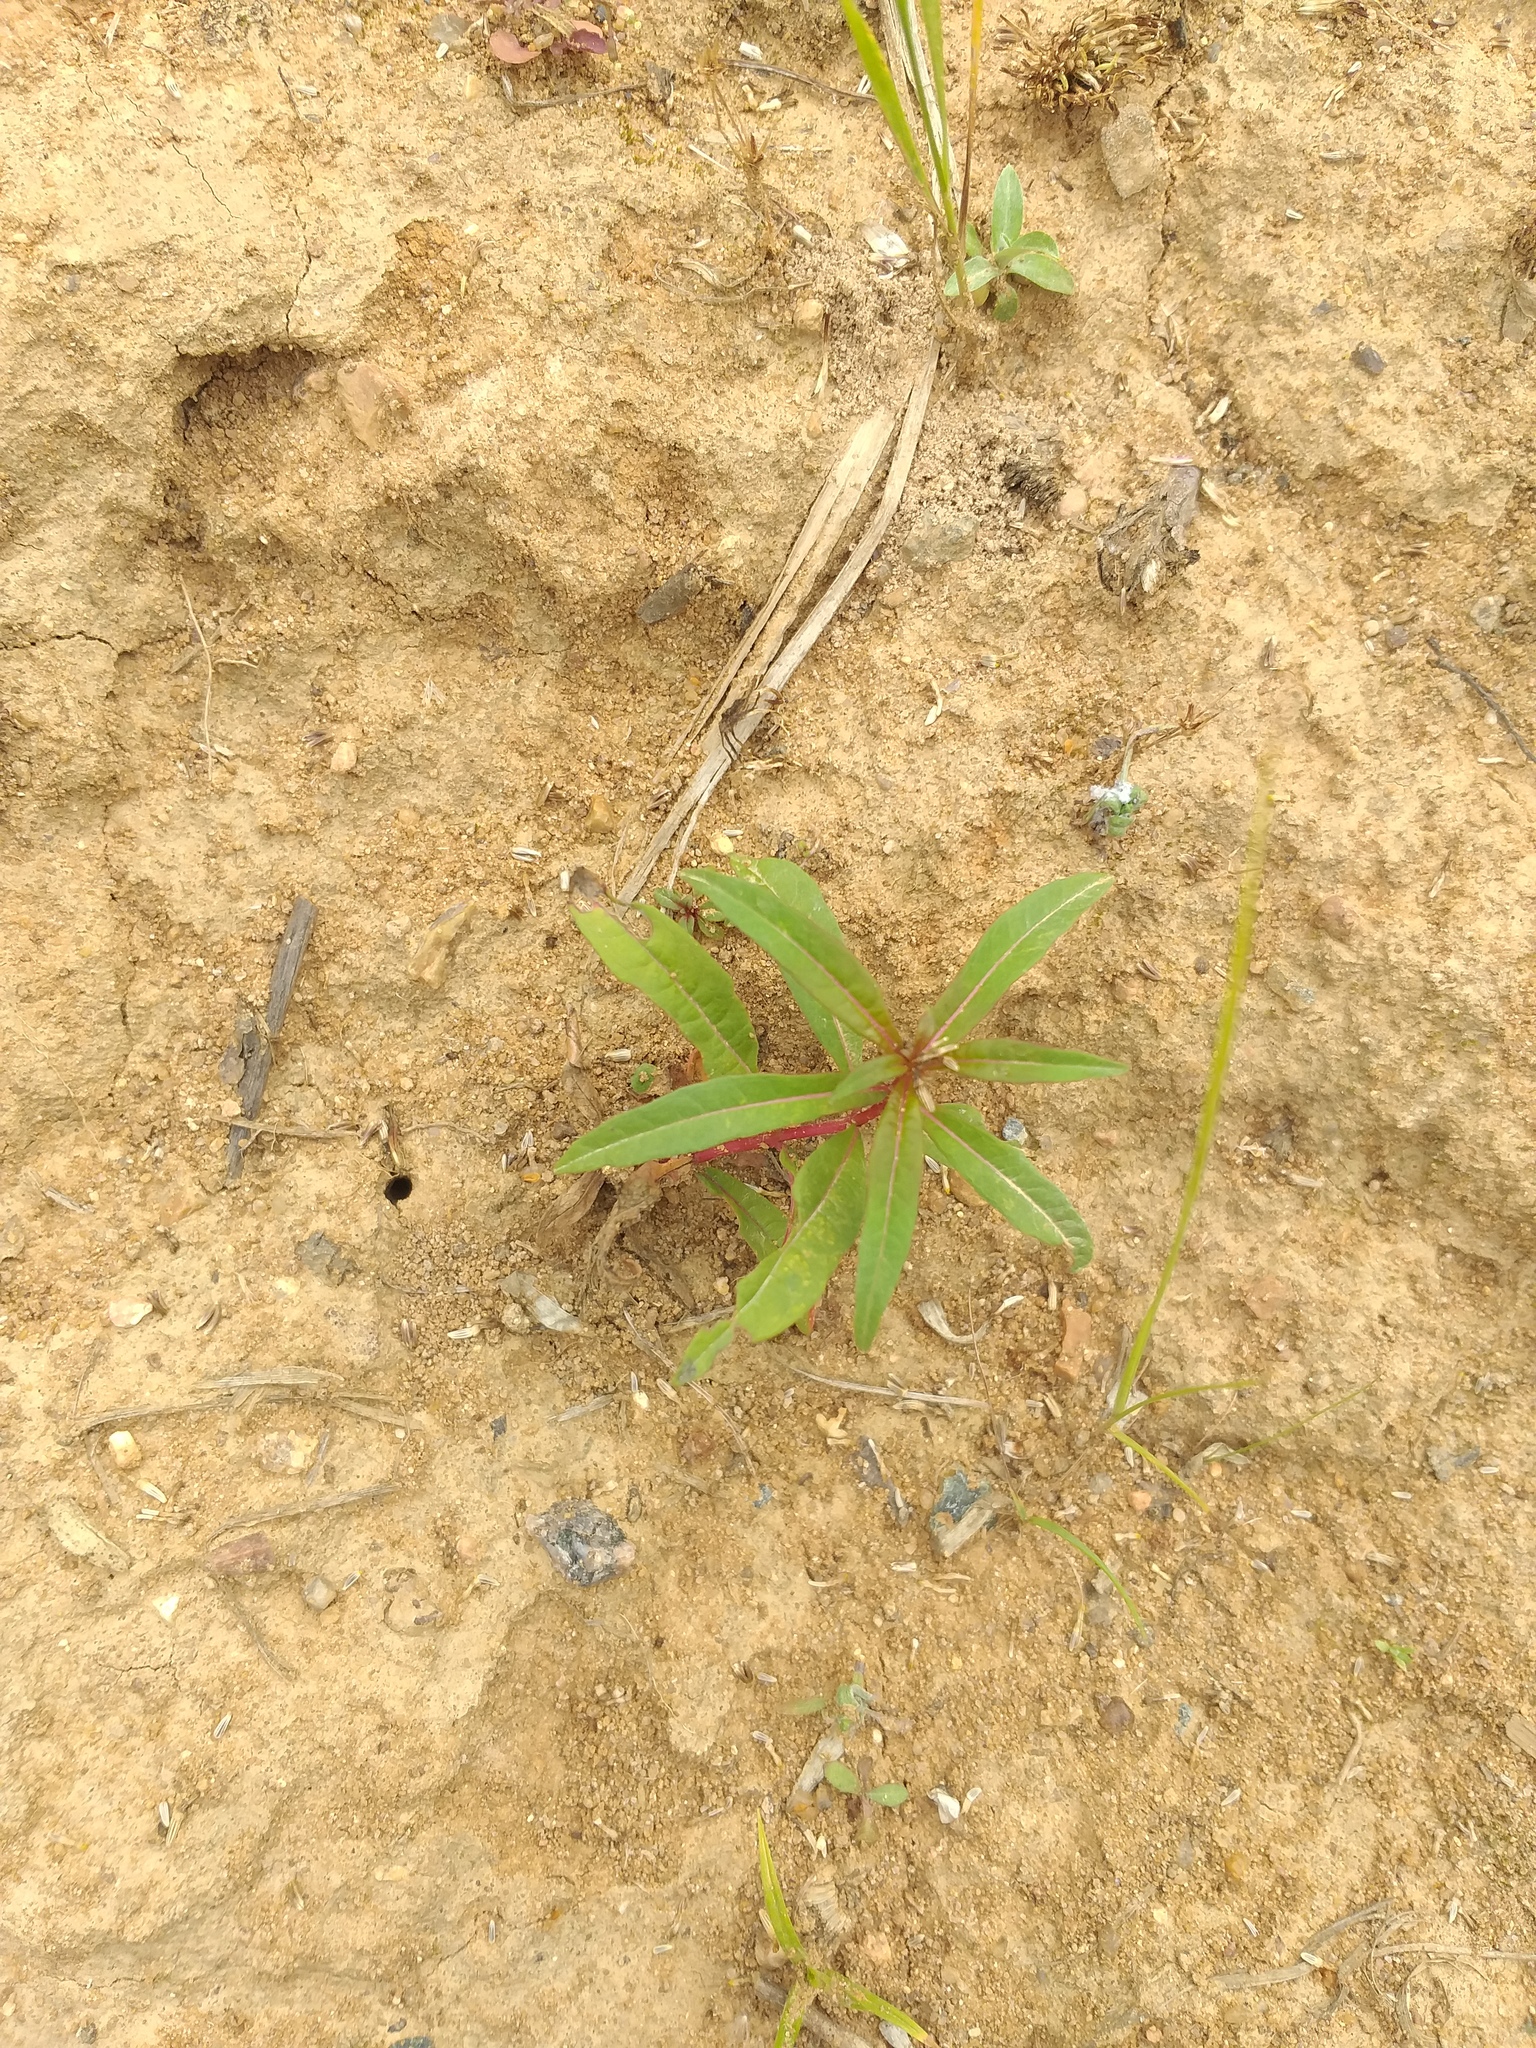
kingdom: Plantae
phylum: Tracheophyta
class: Magnoliopsida
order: Myrtales
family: Onagraceae
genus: Chamaenerion
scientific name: Chamaenerion angustifolium
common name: Fireweed
